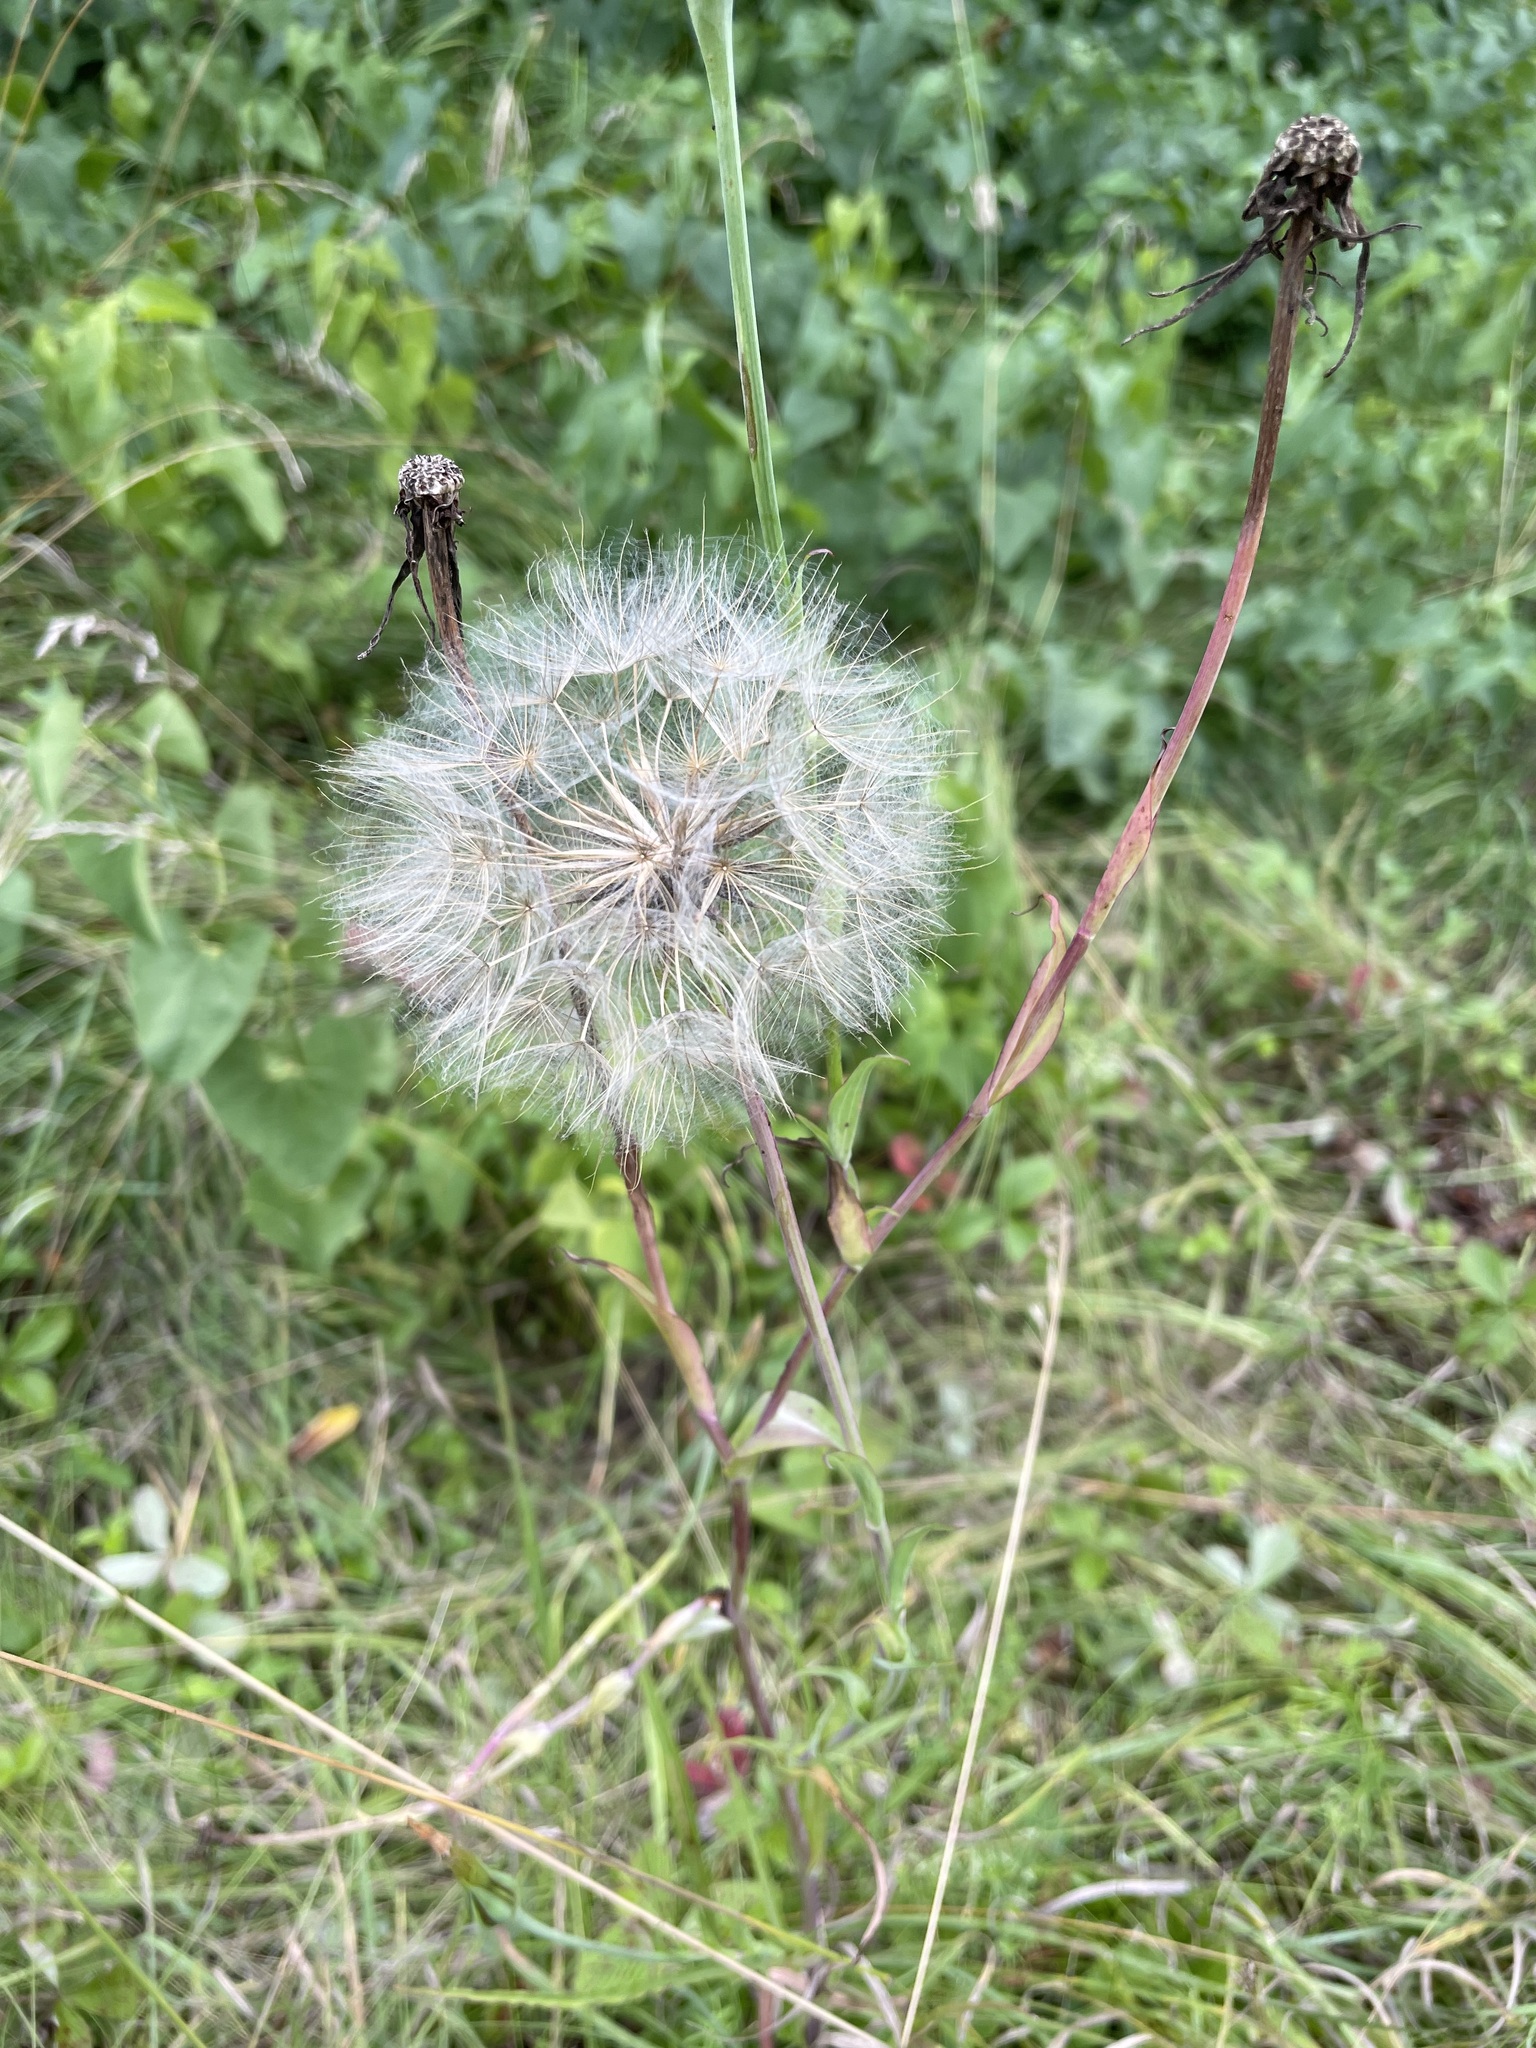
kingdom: Plantae
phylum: Tracheophyta
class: Magnoliopsida
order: Asterales
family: Asteraceae
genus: Tragopogon
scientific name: Tragopogon pratensis
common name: Goat's-beard
